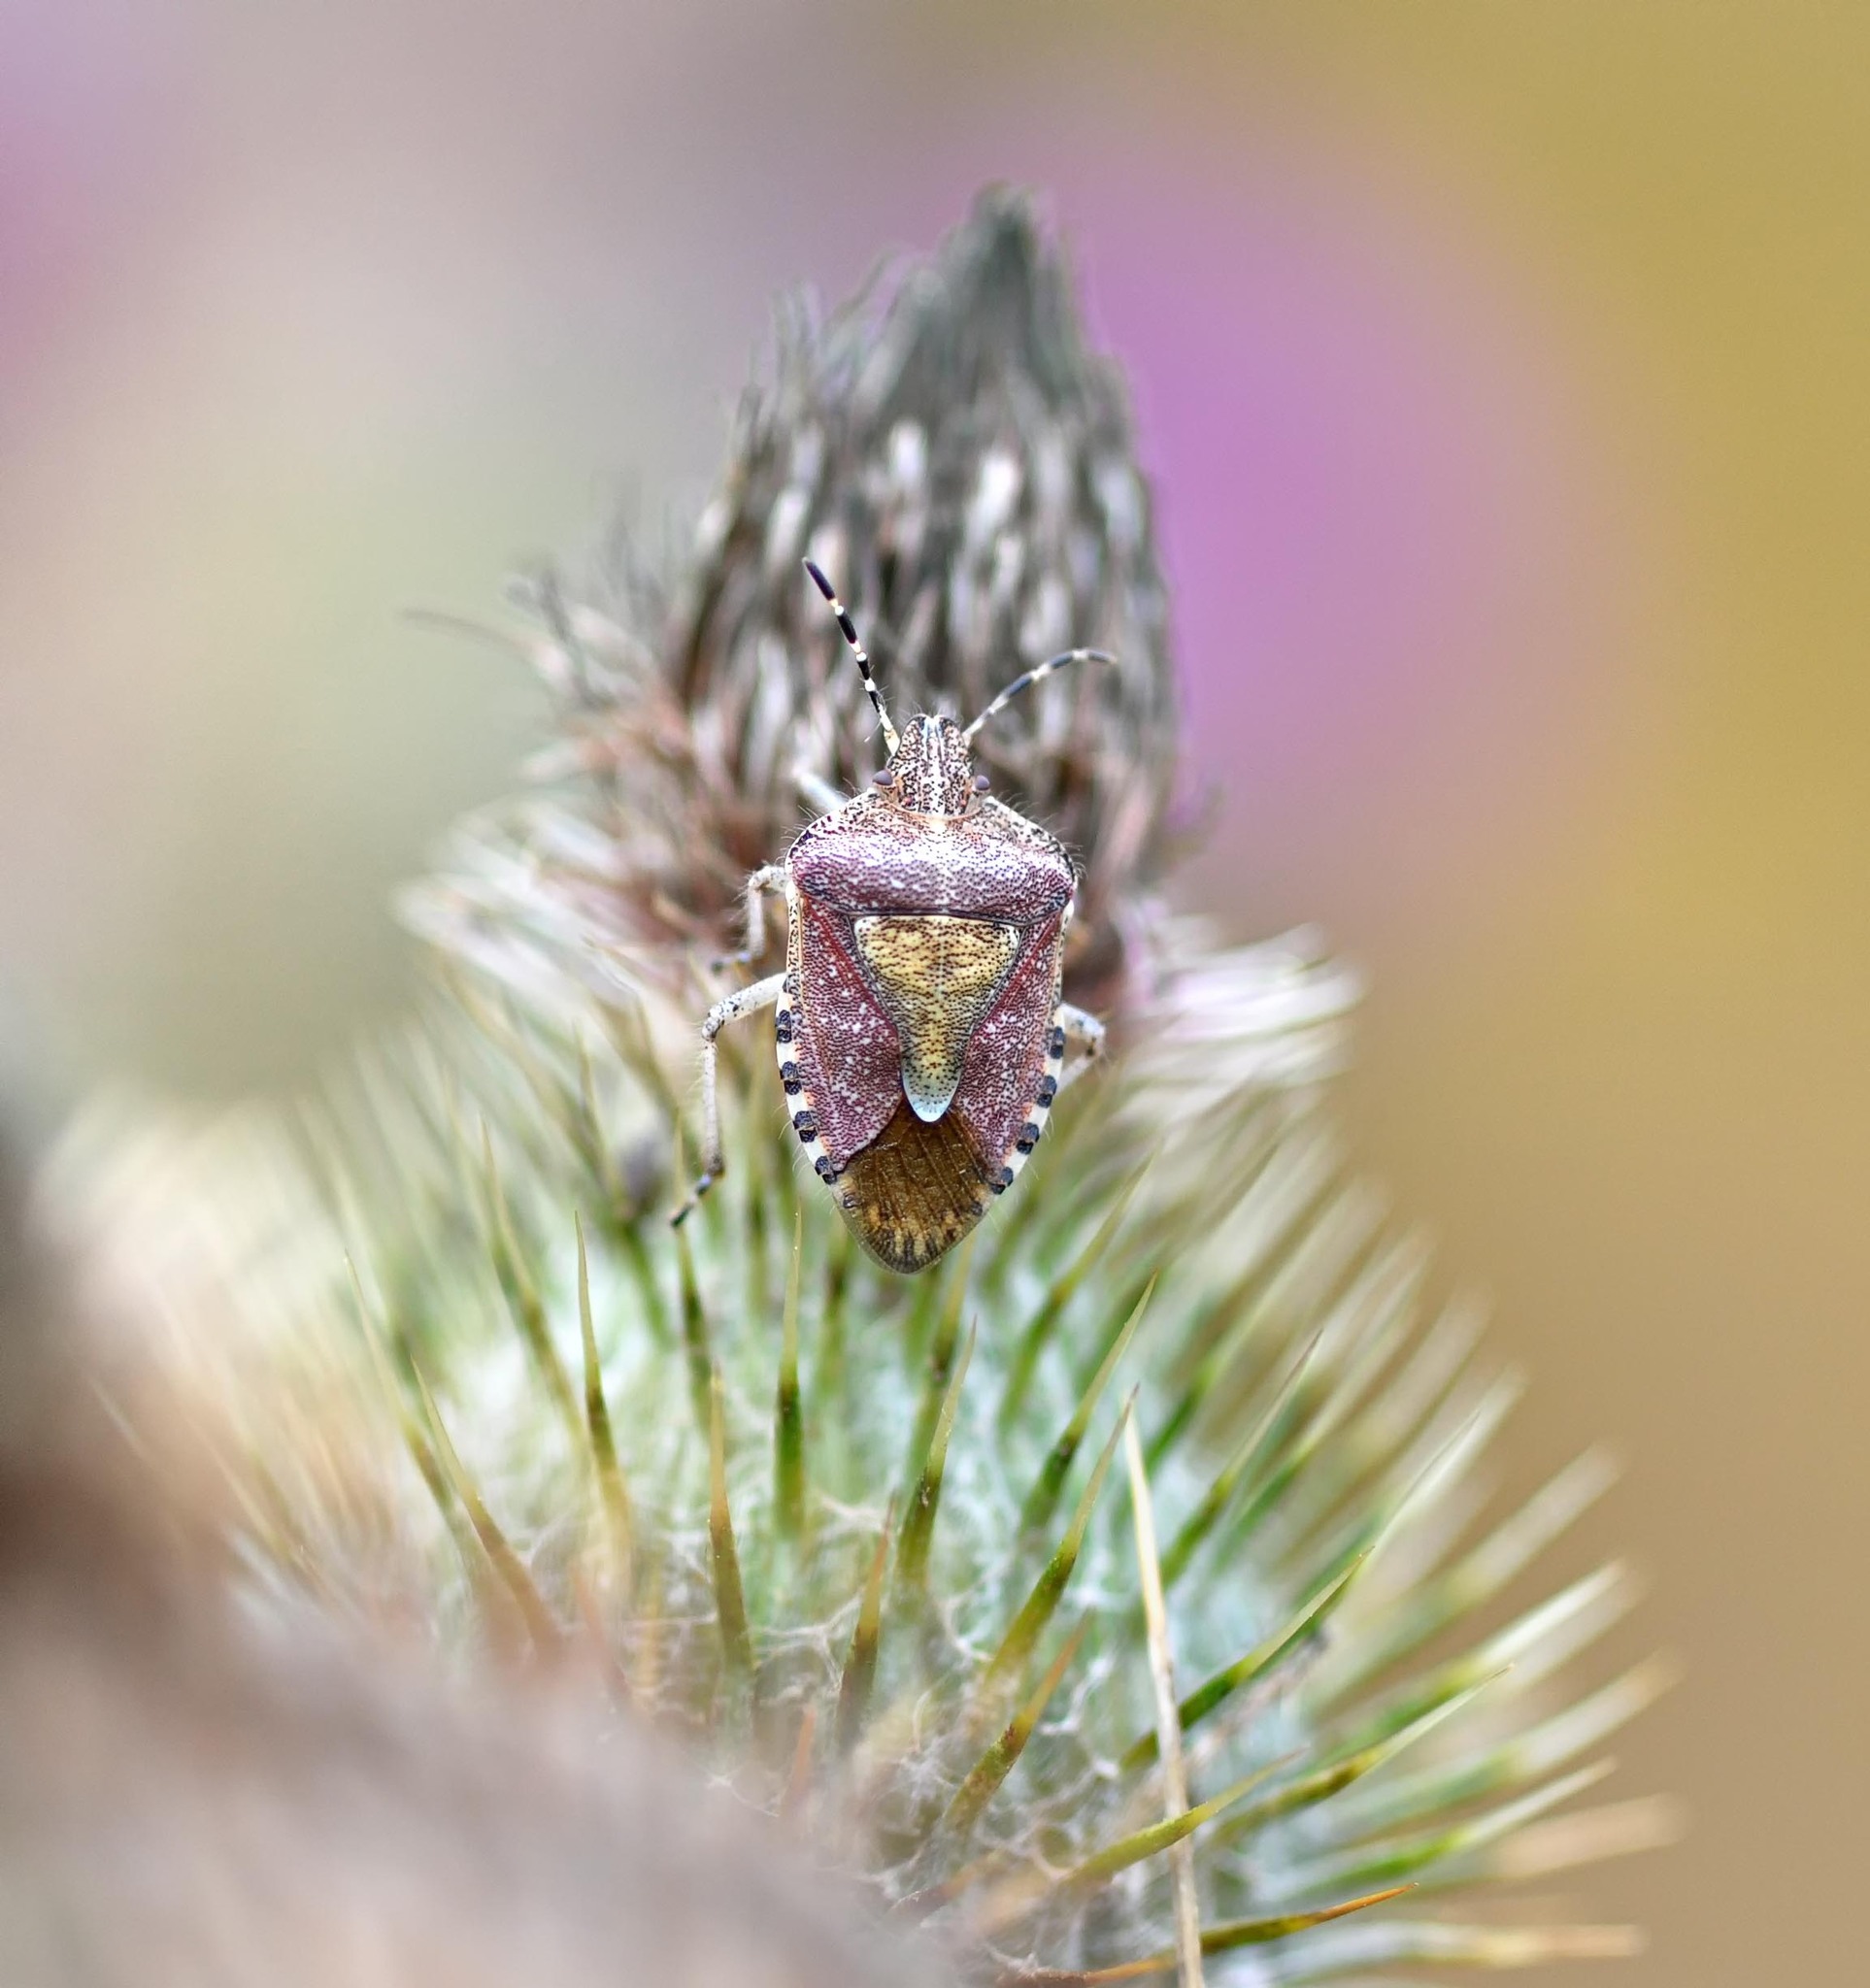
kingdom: Animalia
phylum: Arthropoda
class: Insecta
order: Hemiptera
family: Pentatomidae
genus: Dolycoris
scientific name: Dolycoris baccarum
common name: Sloe bug
